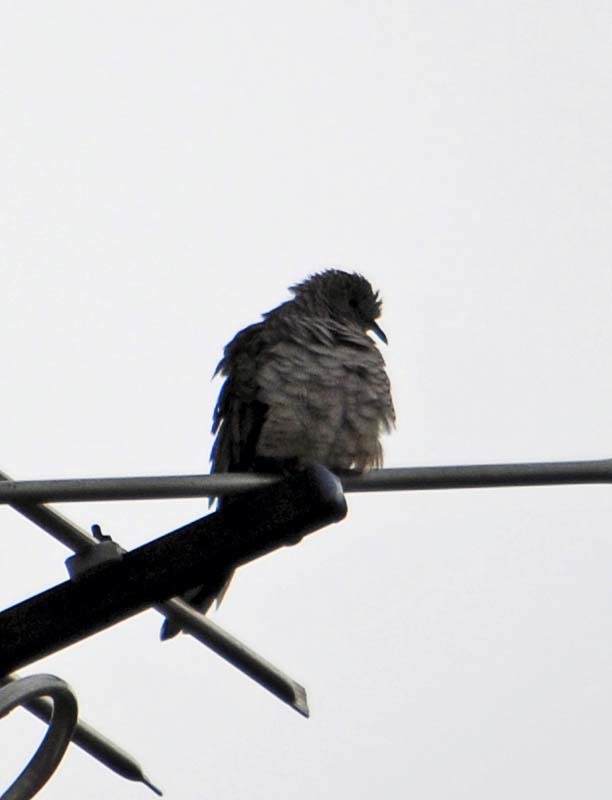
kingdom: Animalia
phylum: Chordata
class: Aves
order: Columbiformes
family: Columbidae
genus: Columbina
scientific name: Columbina inca
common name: Inca dove
